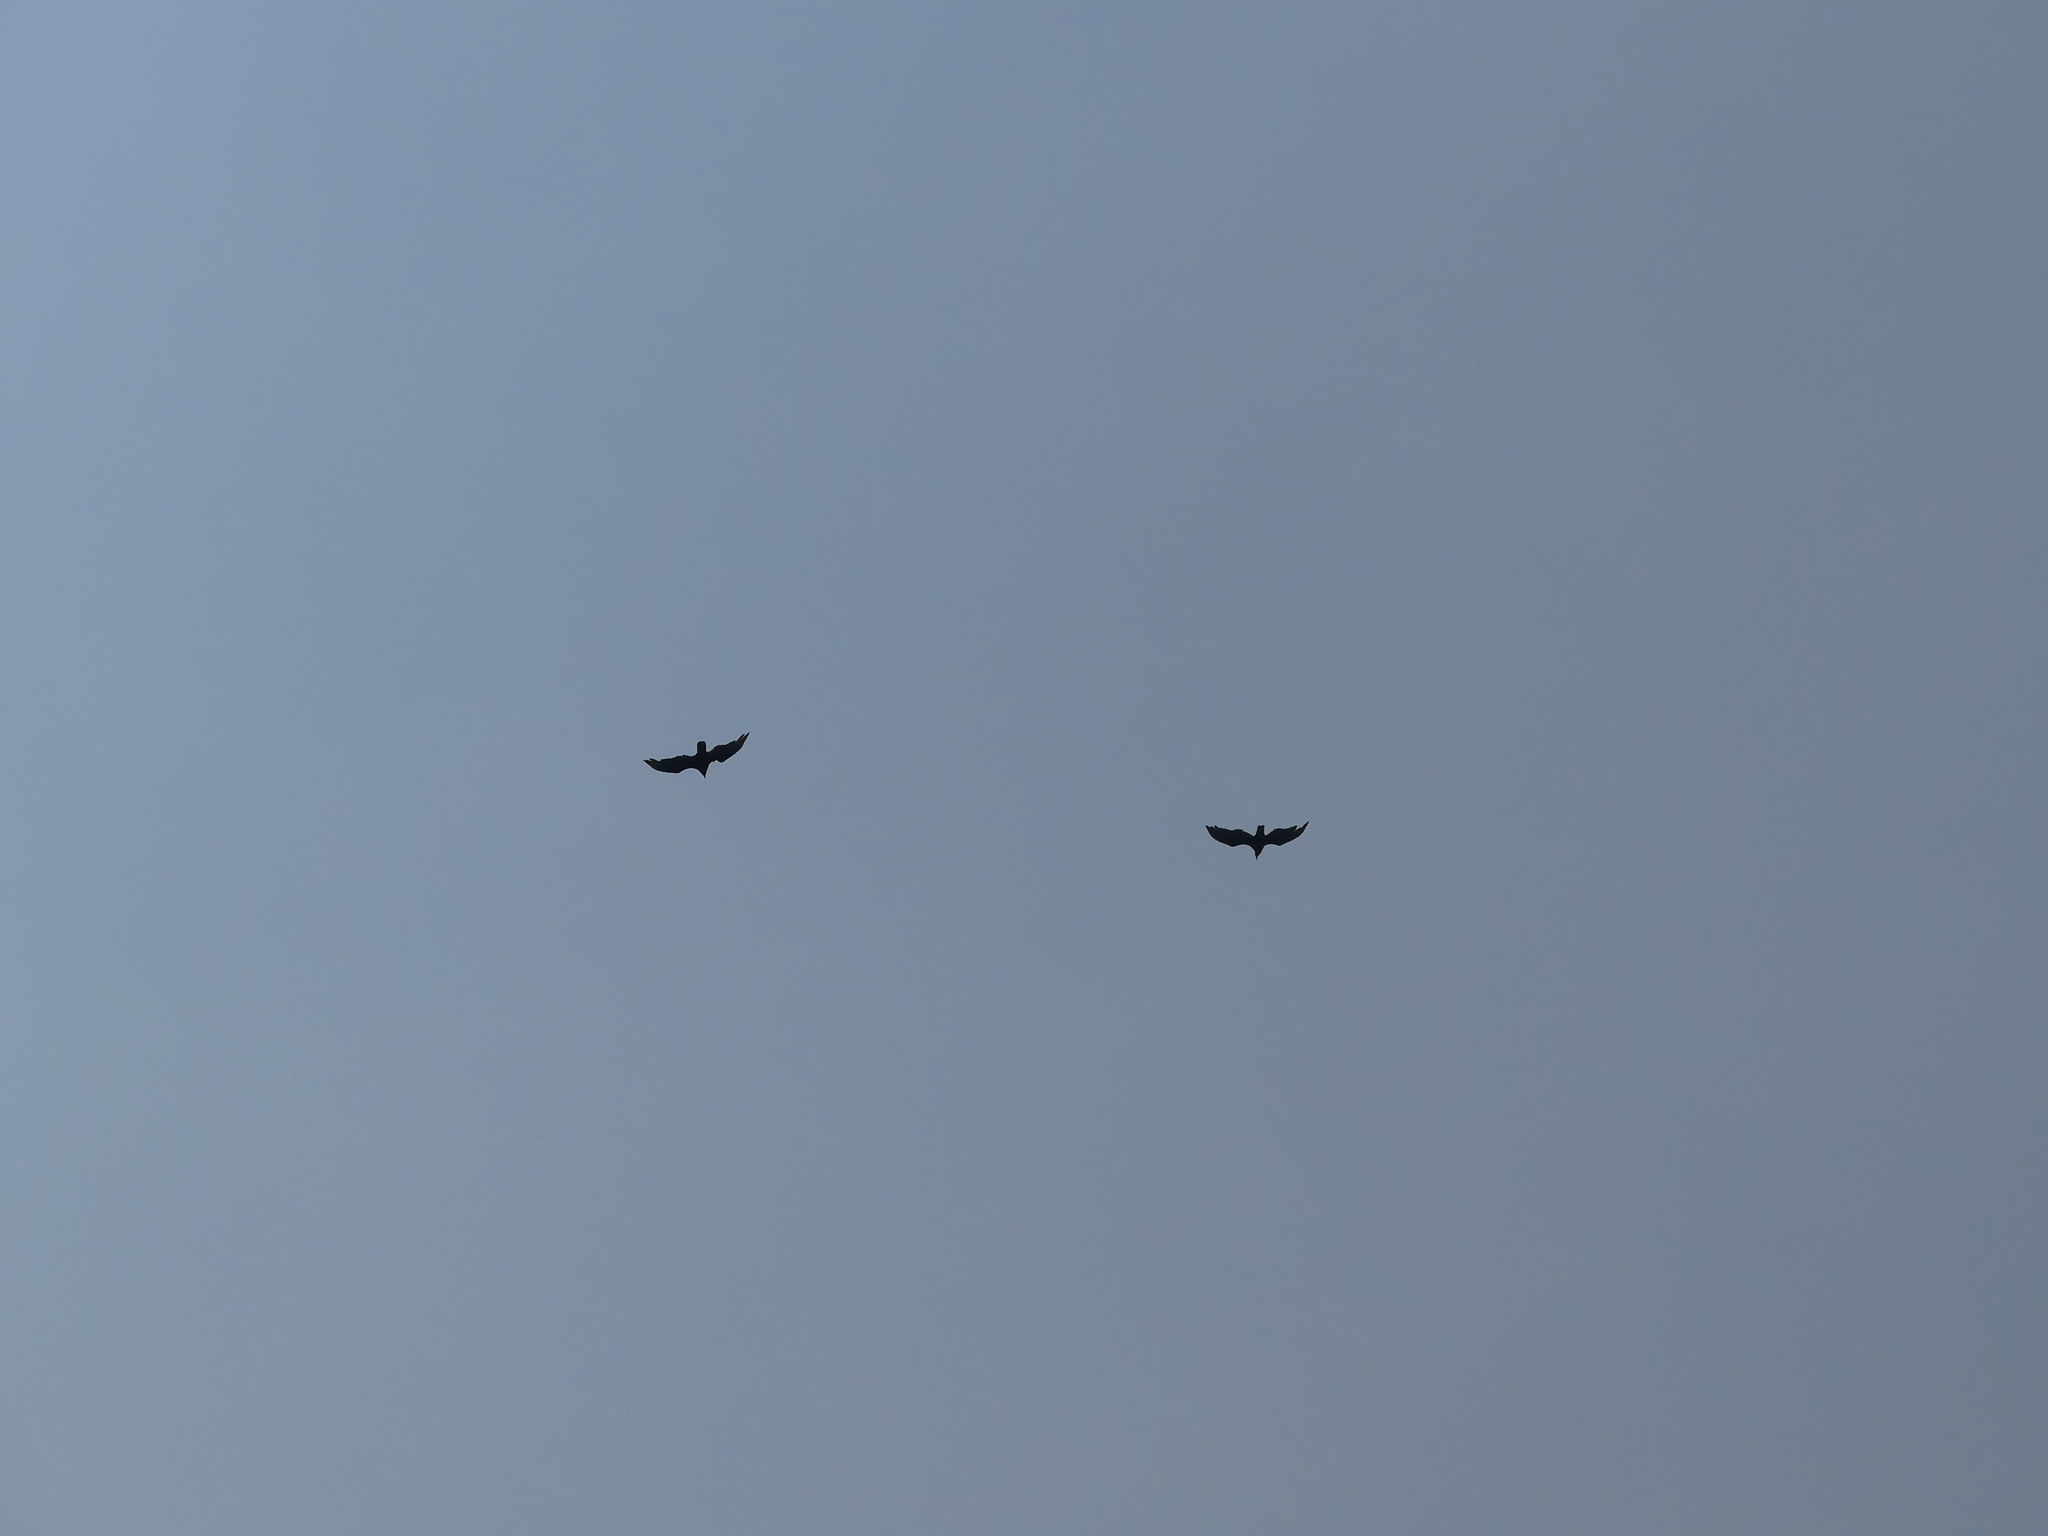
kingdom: Animalia
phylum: Chordata
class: Aves
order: Accipitriformes
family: Cathartidae
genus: Cathartes
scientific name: Cathartes aura
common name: Turkey vulture
